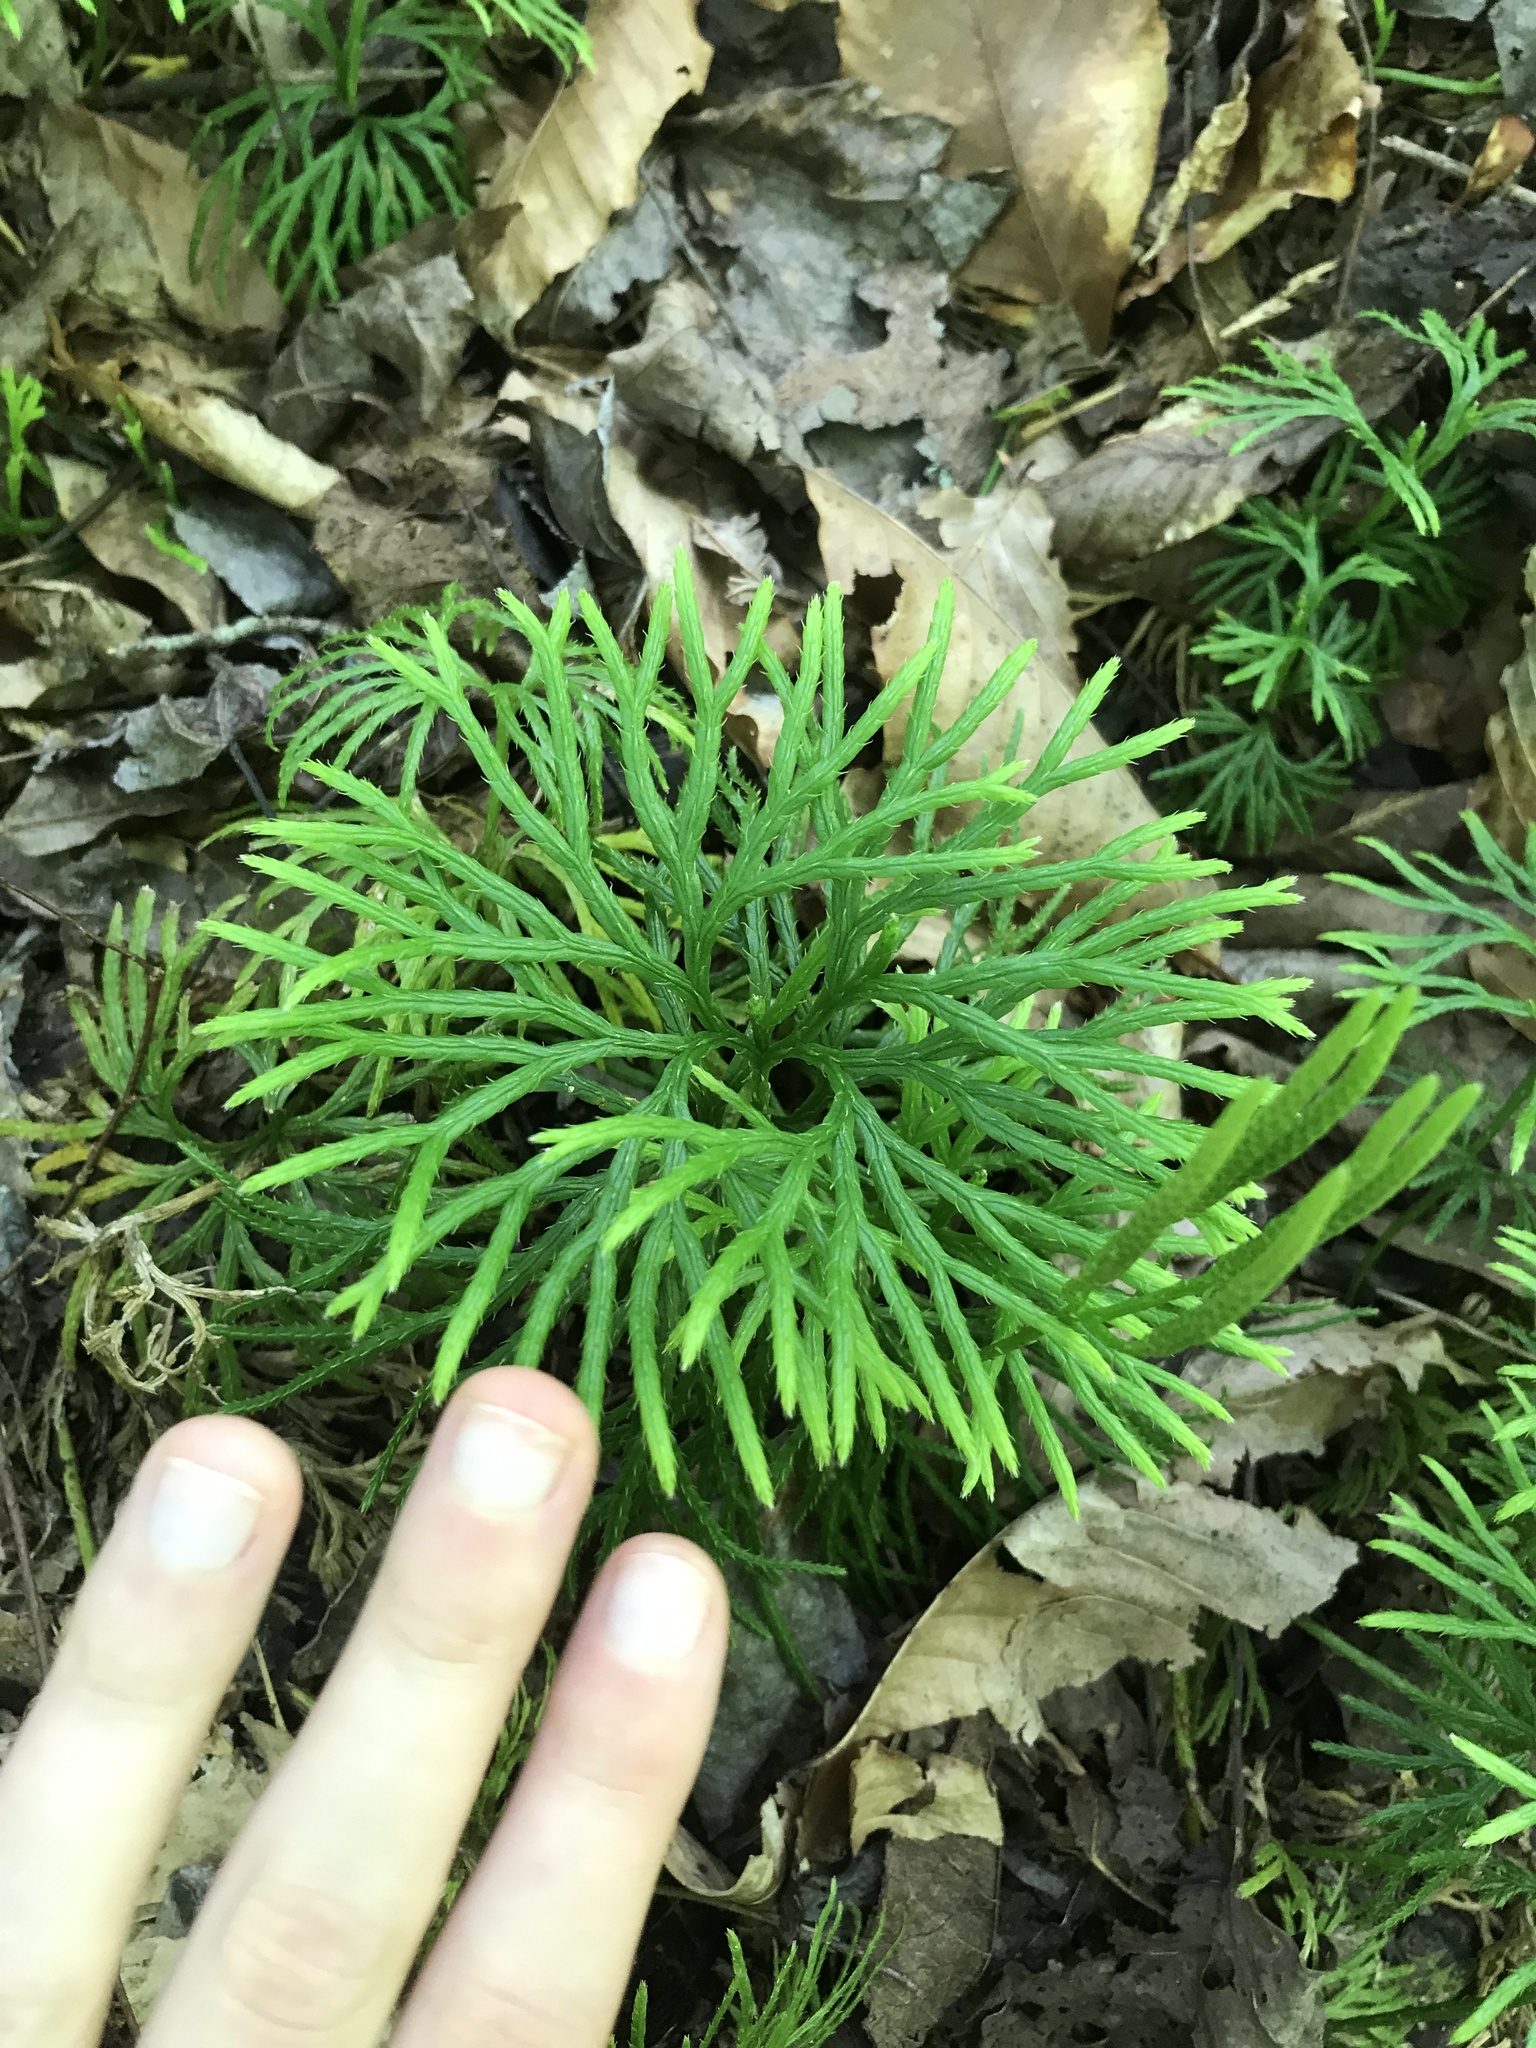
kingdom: Plantae
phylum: Tracheophyta
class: Lycopodiopsida
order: Lycopodiales
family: Lycopodiaceae
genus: Diphasiastrum
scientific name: Diphasiastrum digitatum
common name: Southern running-pine
